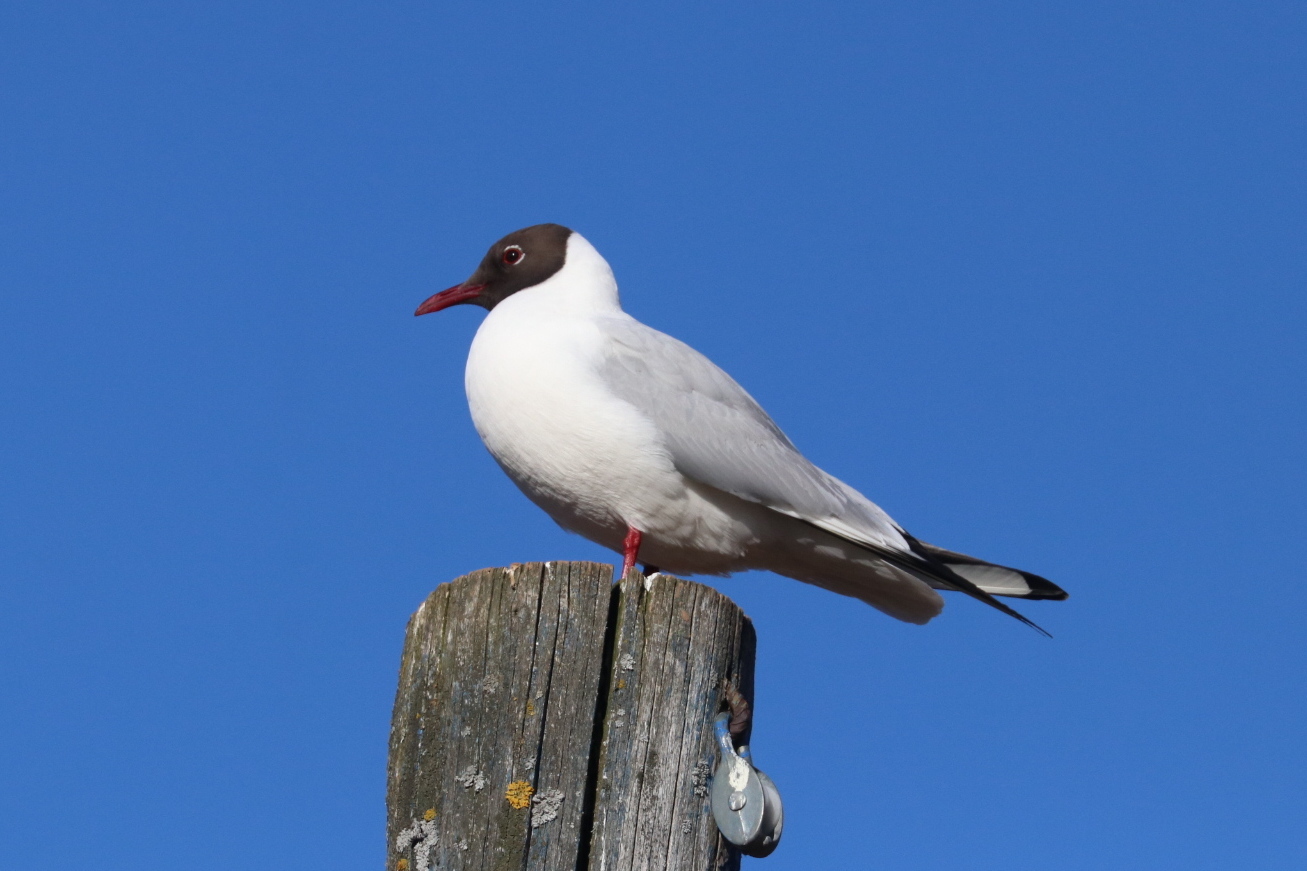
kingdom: Animalia
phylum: Chordata
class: Aves
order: Charadriiformes
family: Laridae
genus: Chroicocephalus
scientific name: Chroicocephalus ridibundus
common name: Black-headed gull
